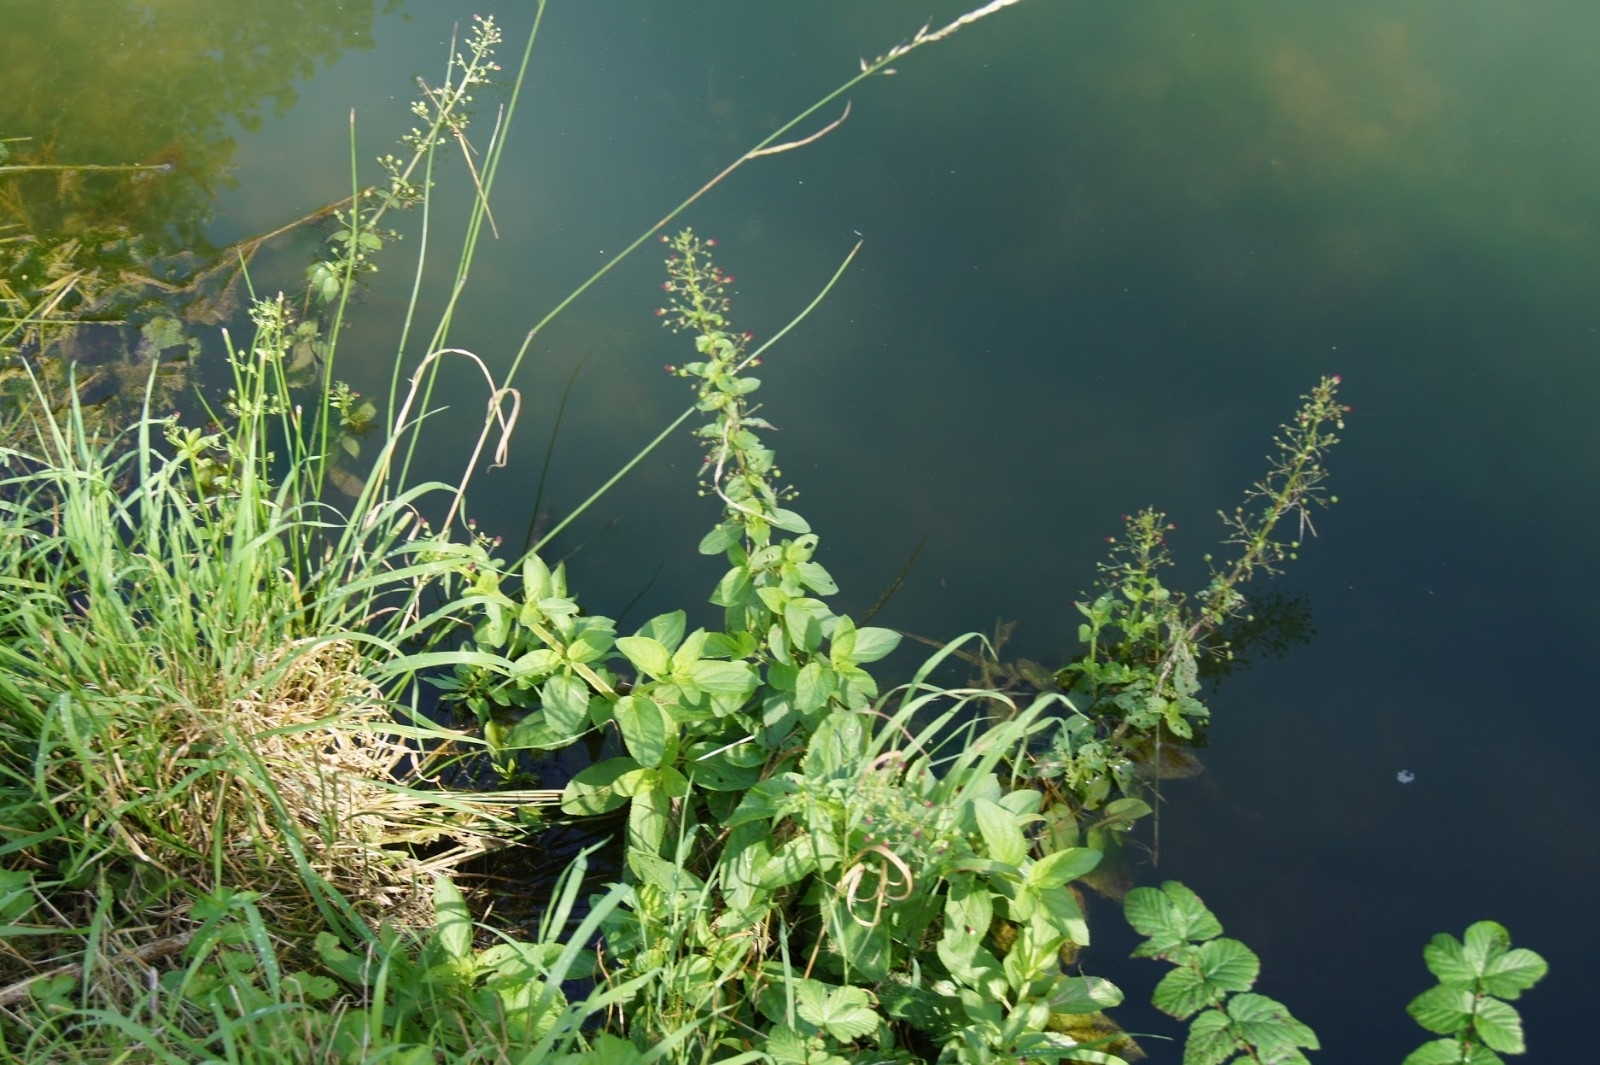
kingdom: Plantae
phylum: Tracheophyta
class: Magnoliopsida
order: Lamiales
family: Scrophulariaceae
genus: Scrophularia
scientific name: Scrophularia umbrosa
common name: Green figwort
